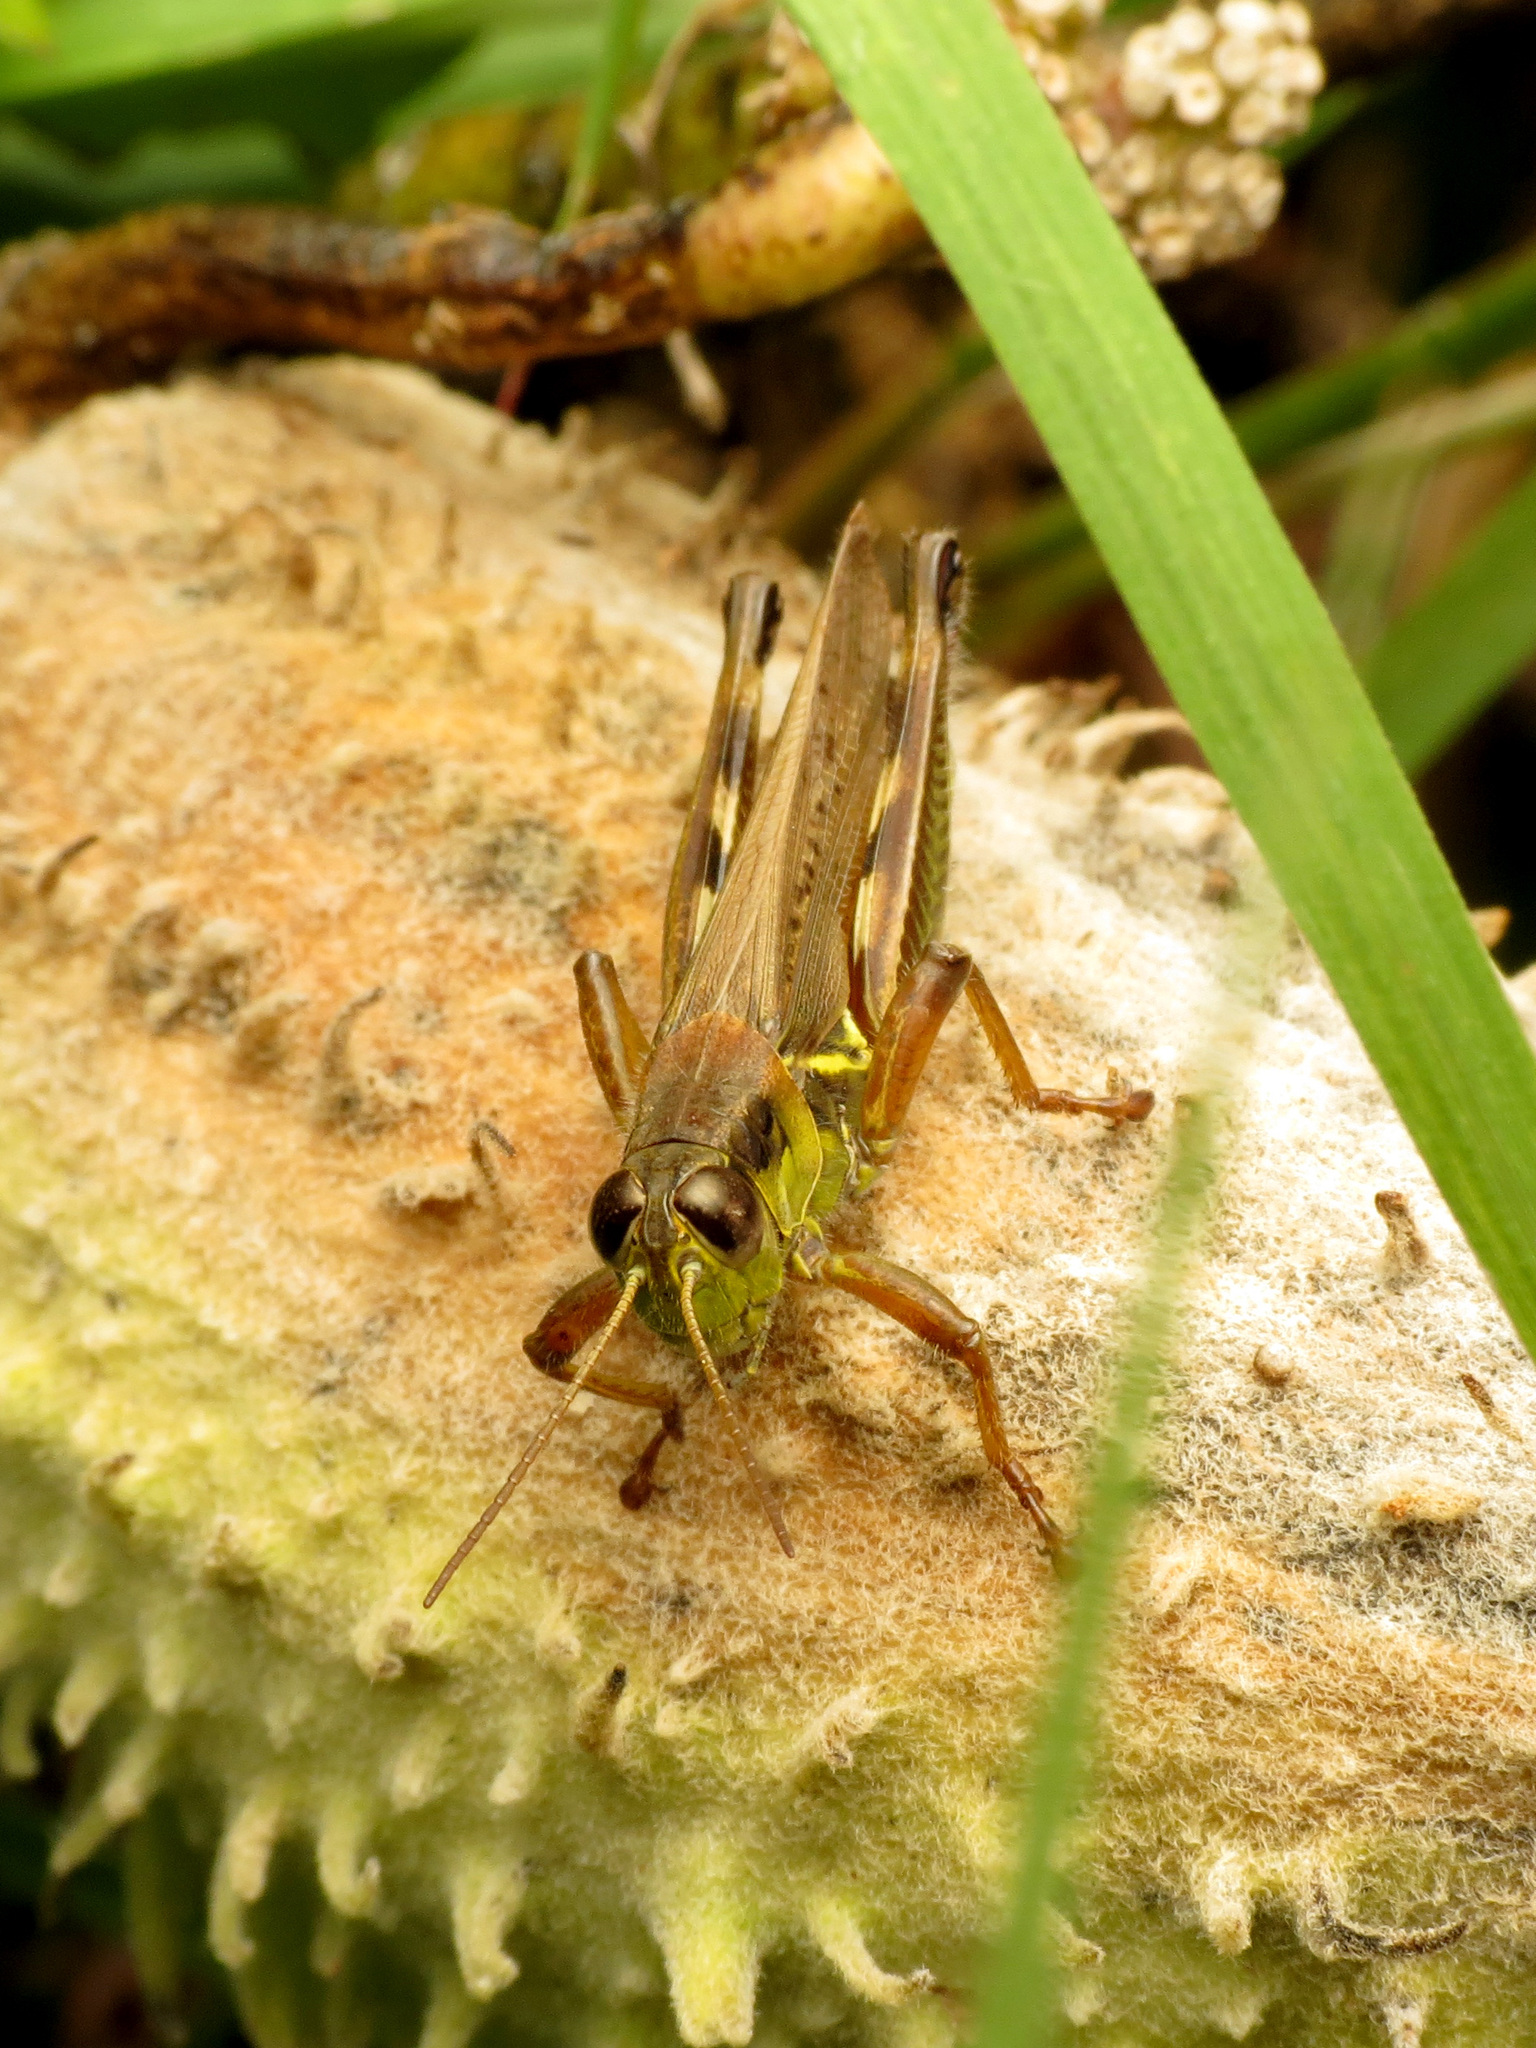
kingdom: Animalia
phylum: Arthropoda
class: Insecta
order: Orthoptera
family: Acrididae
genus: Melanoplus
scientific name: Melanoplus femurrubrum
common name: Red-legged grasshopper
